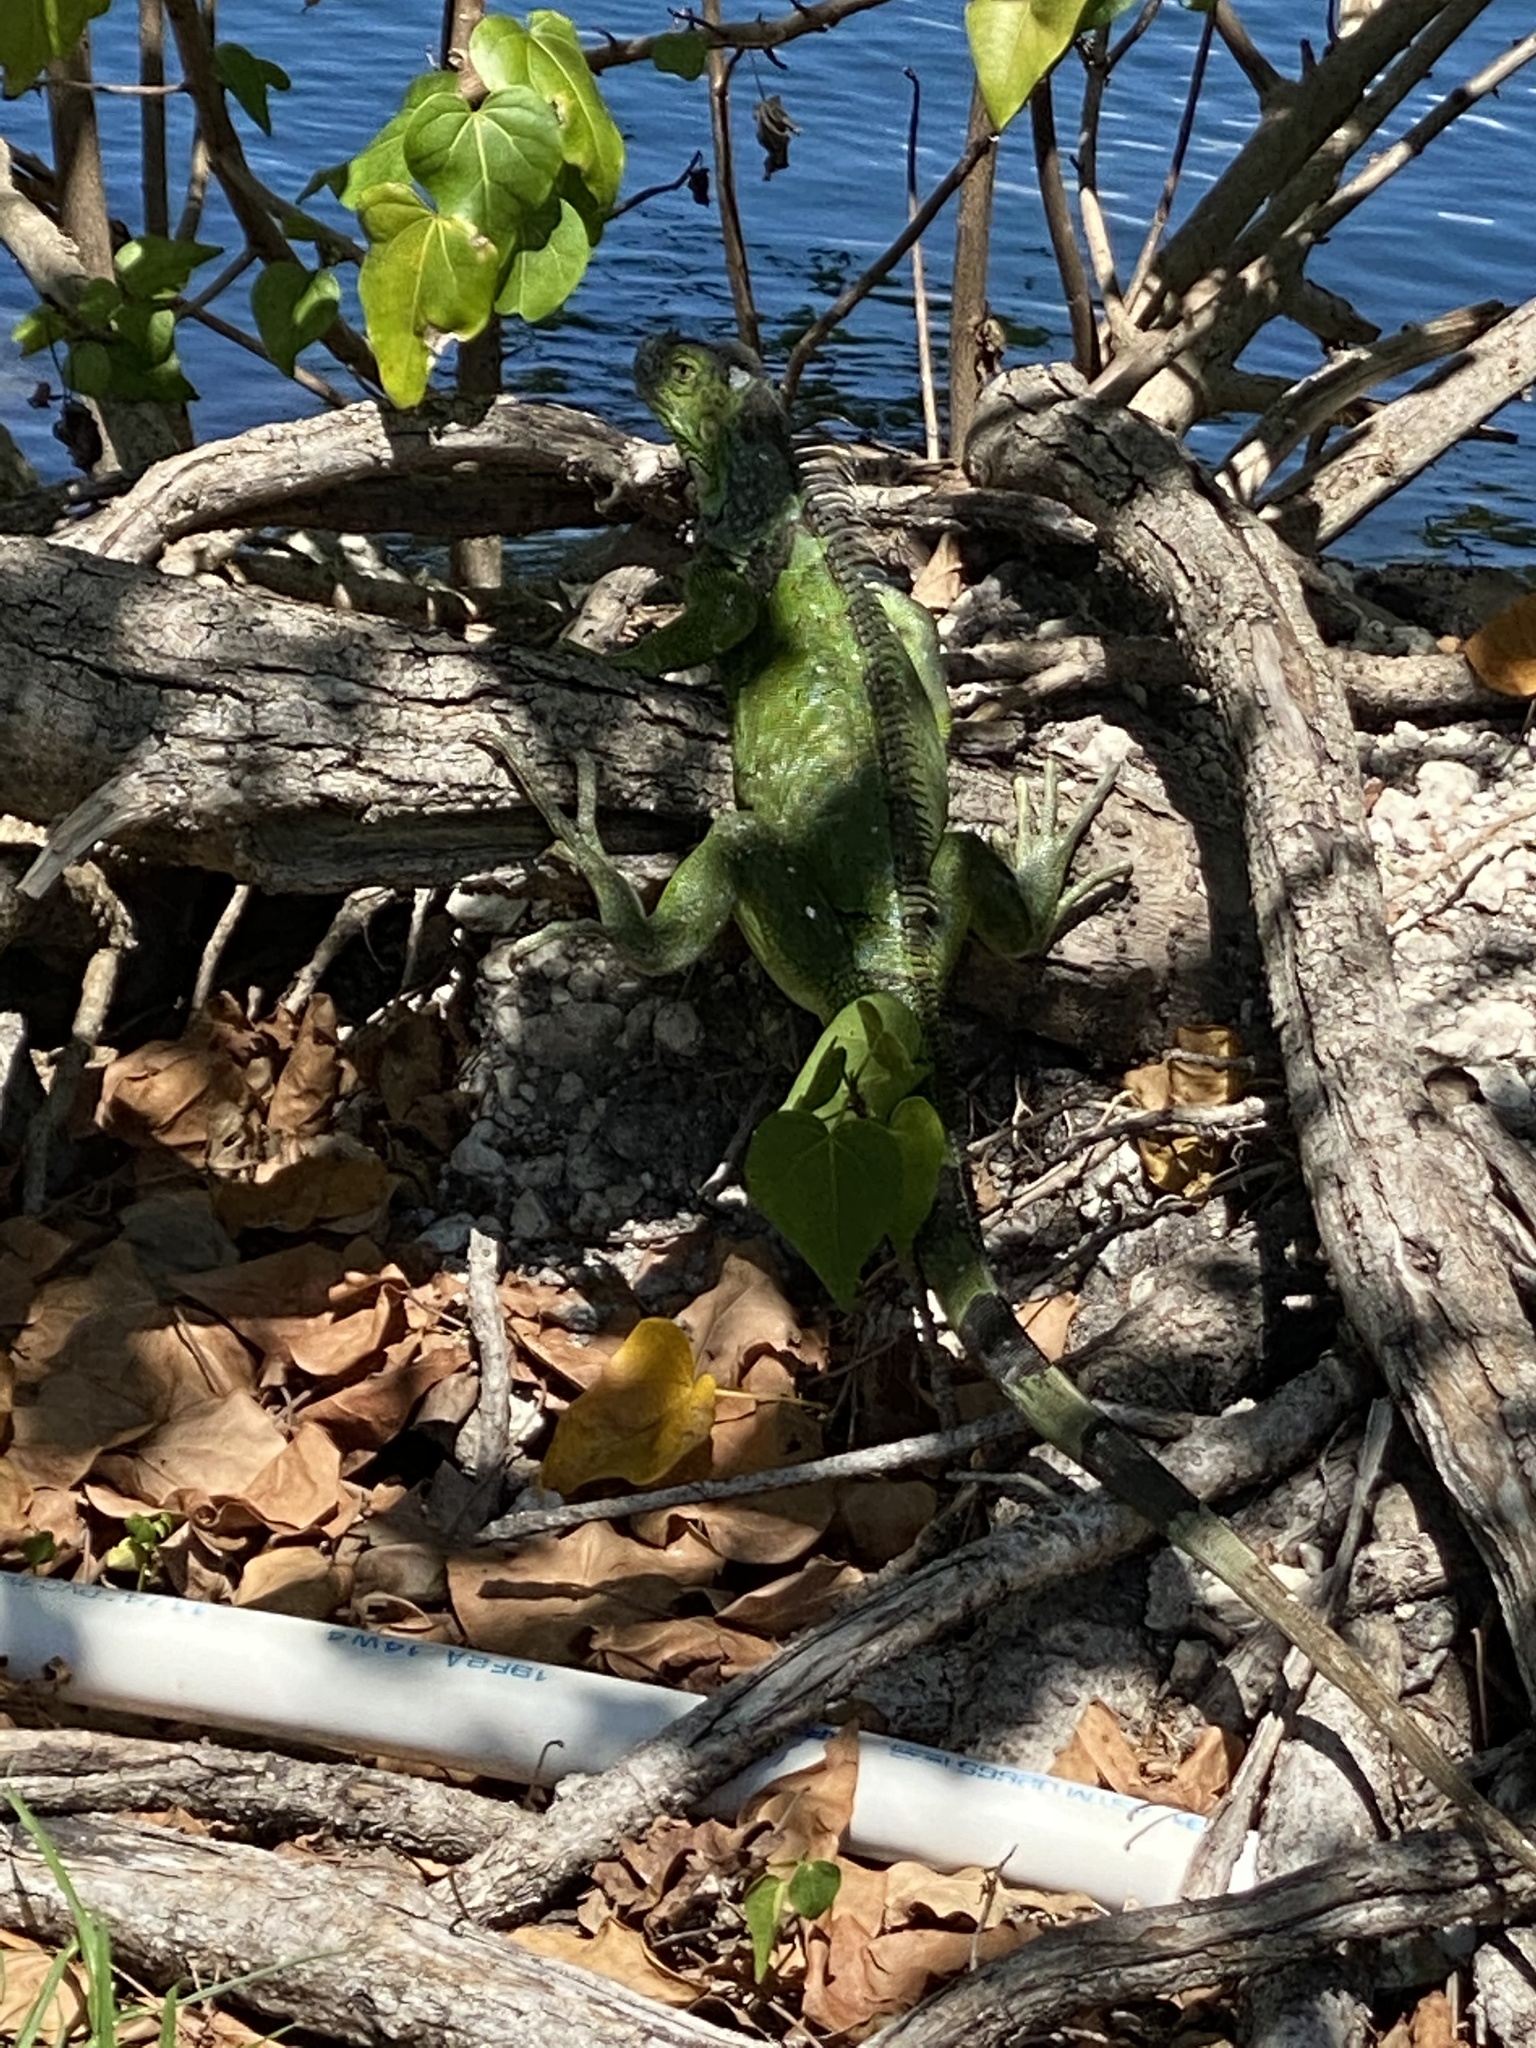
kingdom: Animalia
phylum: Chordata
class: Squamata
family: Iguanidae
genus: Iguana
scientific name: Iguana iguana
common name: Green iguana
